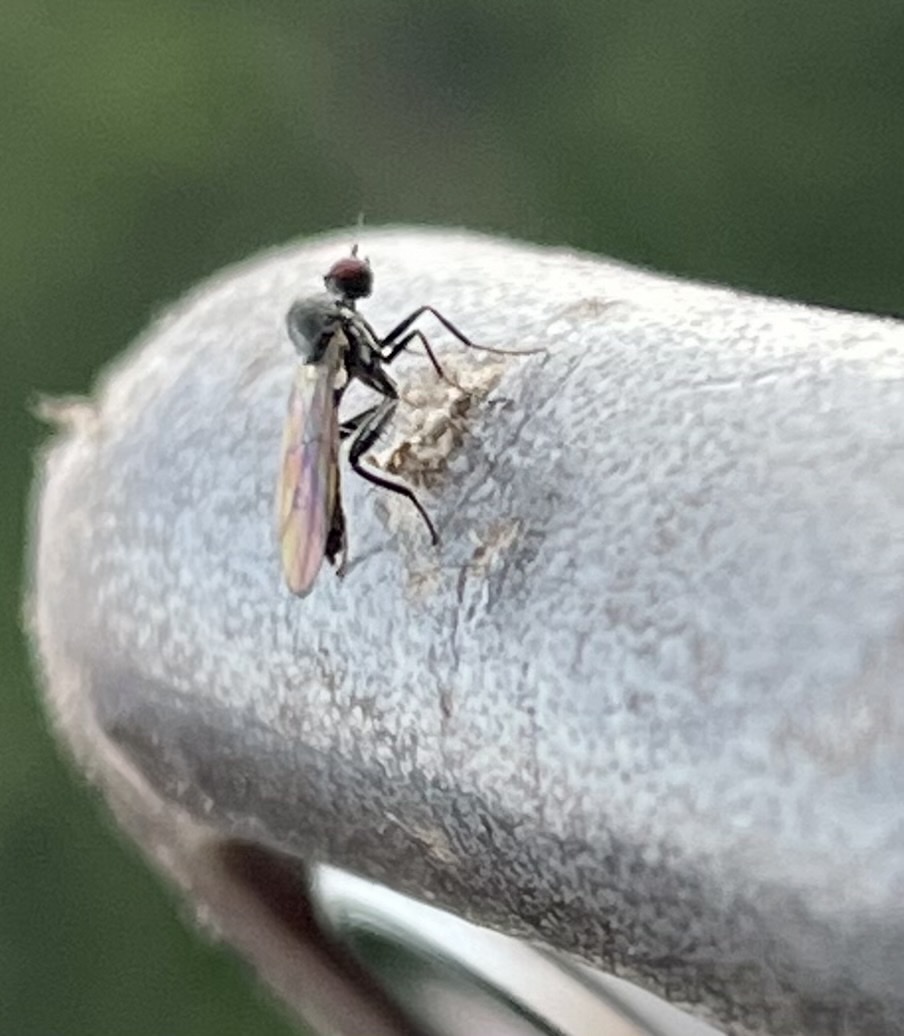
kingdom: Animalia
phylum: Arthropoda
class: Insecta
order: Diptera
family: Hybotidae
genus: Hybos
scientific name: Hybos culiciformis
